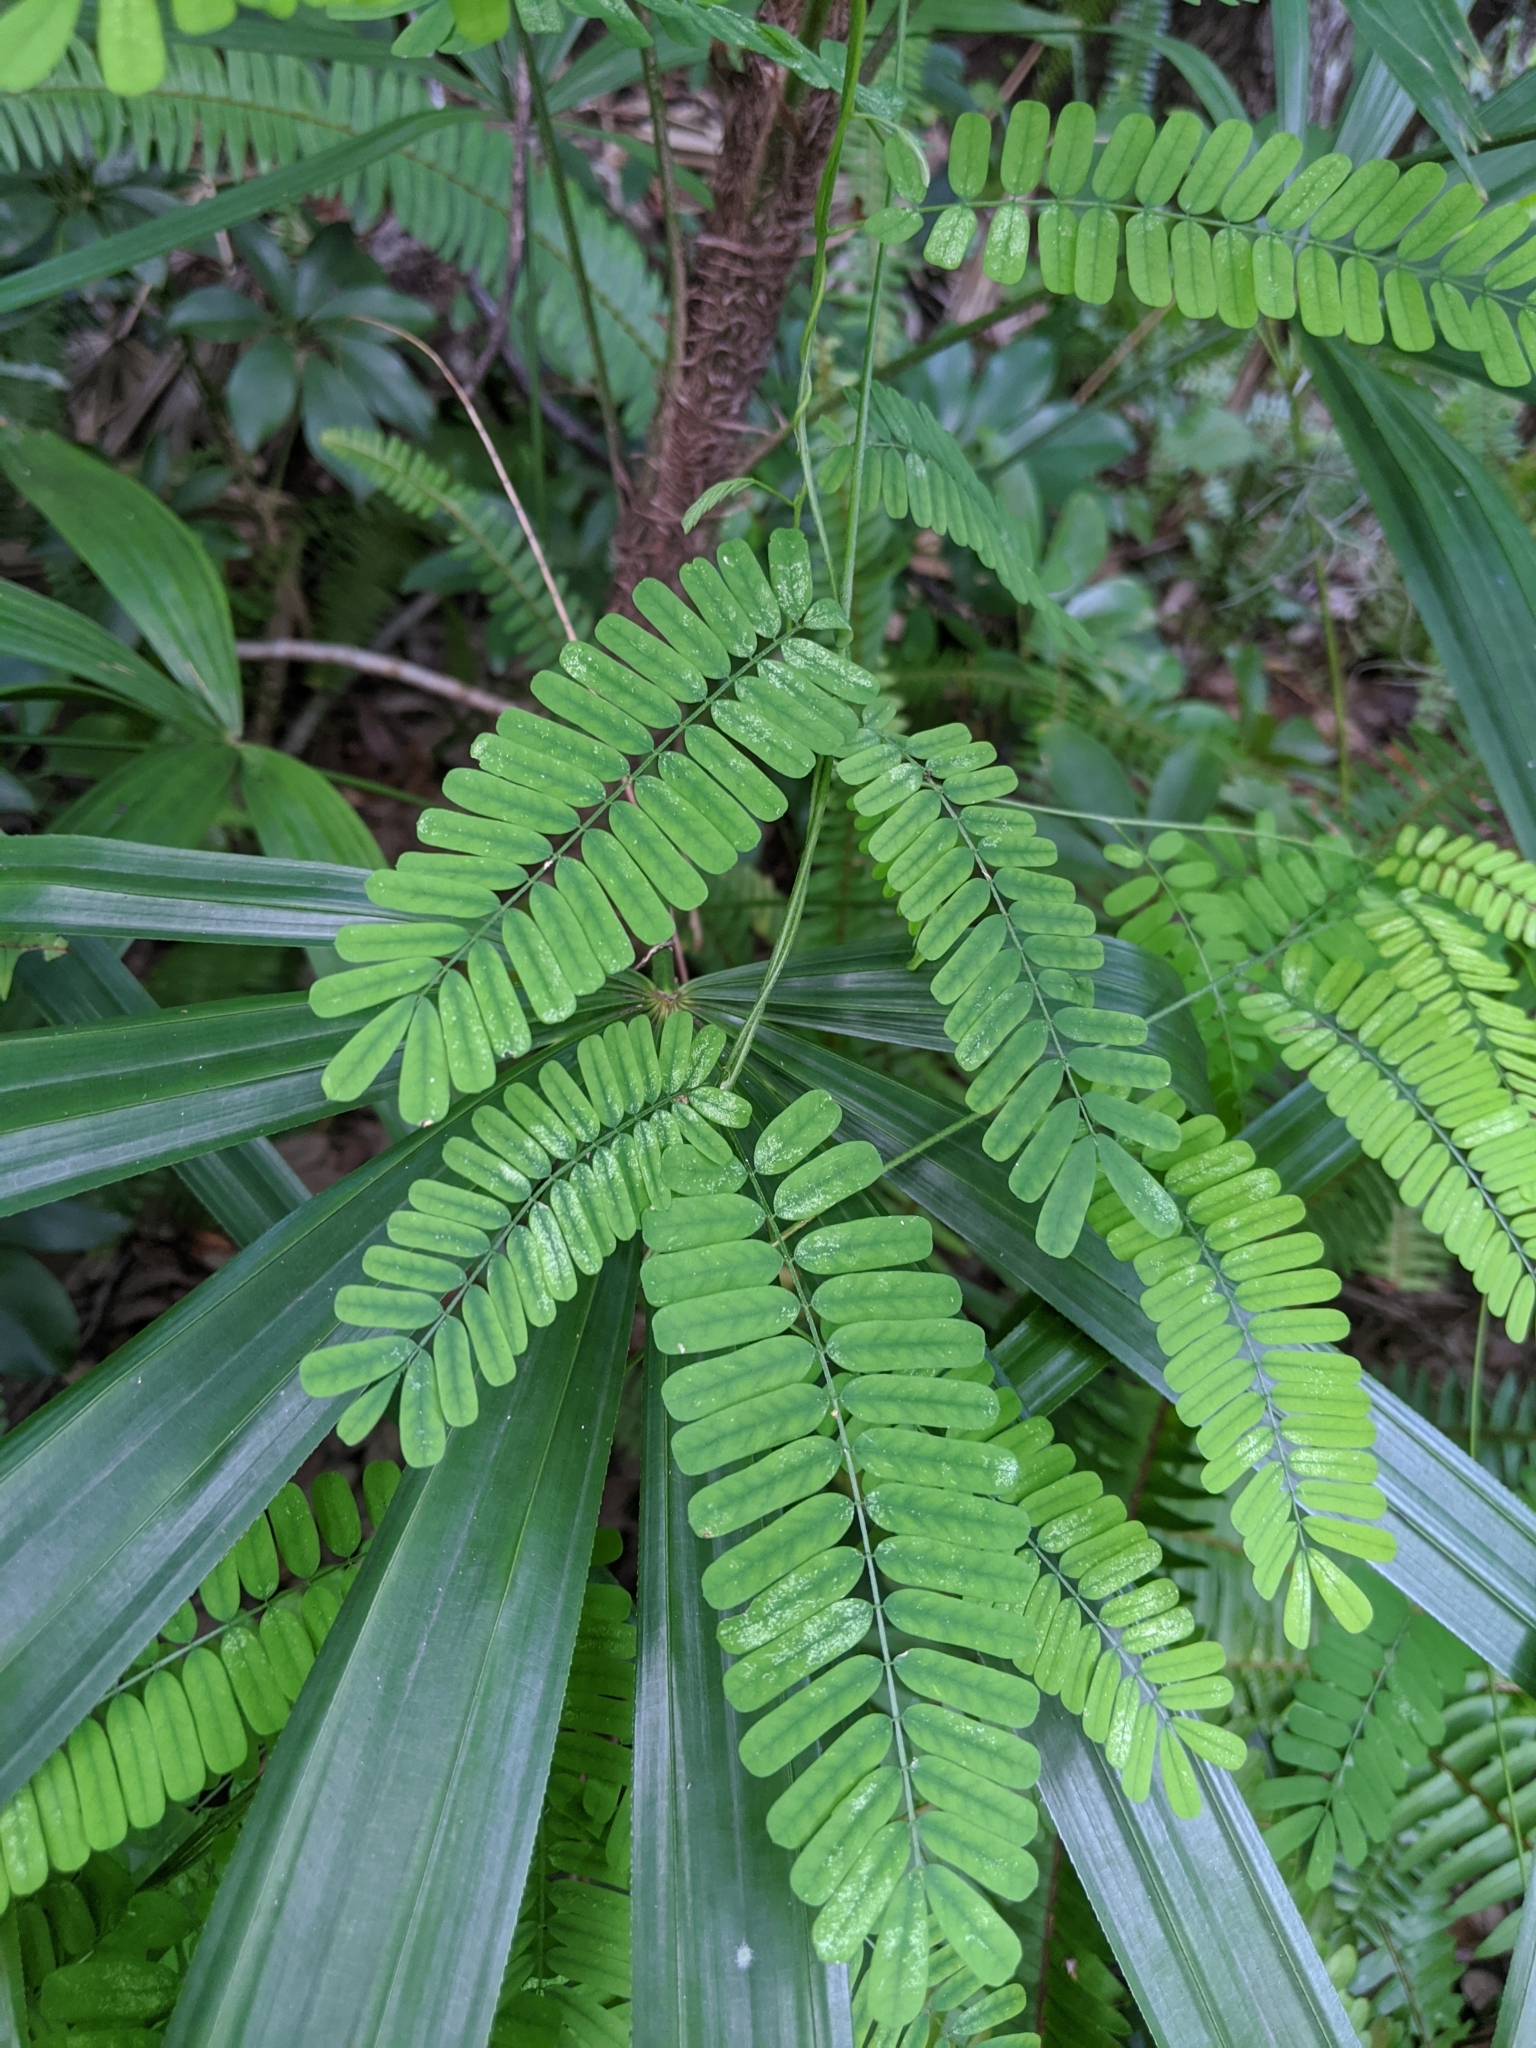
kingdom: Plantae
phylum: Tracheophyta
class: Magnoliopsida
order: Fabales
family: Fabaceae
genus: Abrus
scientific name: Abrus precatorius
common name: Rosarypea
